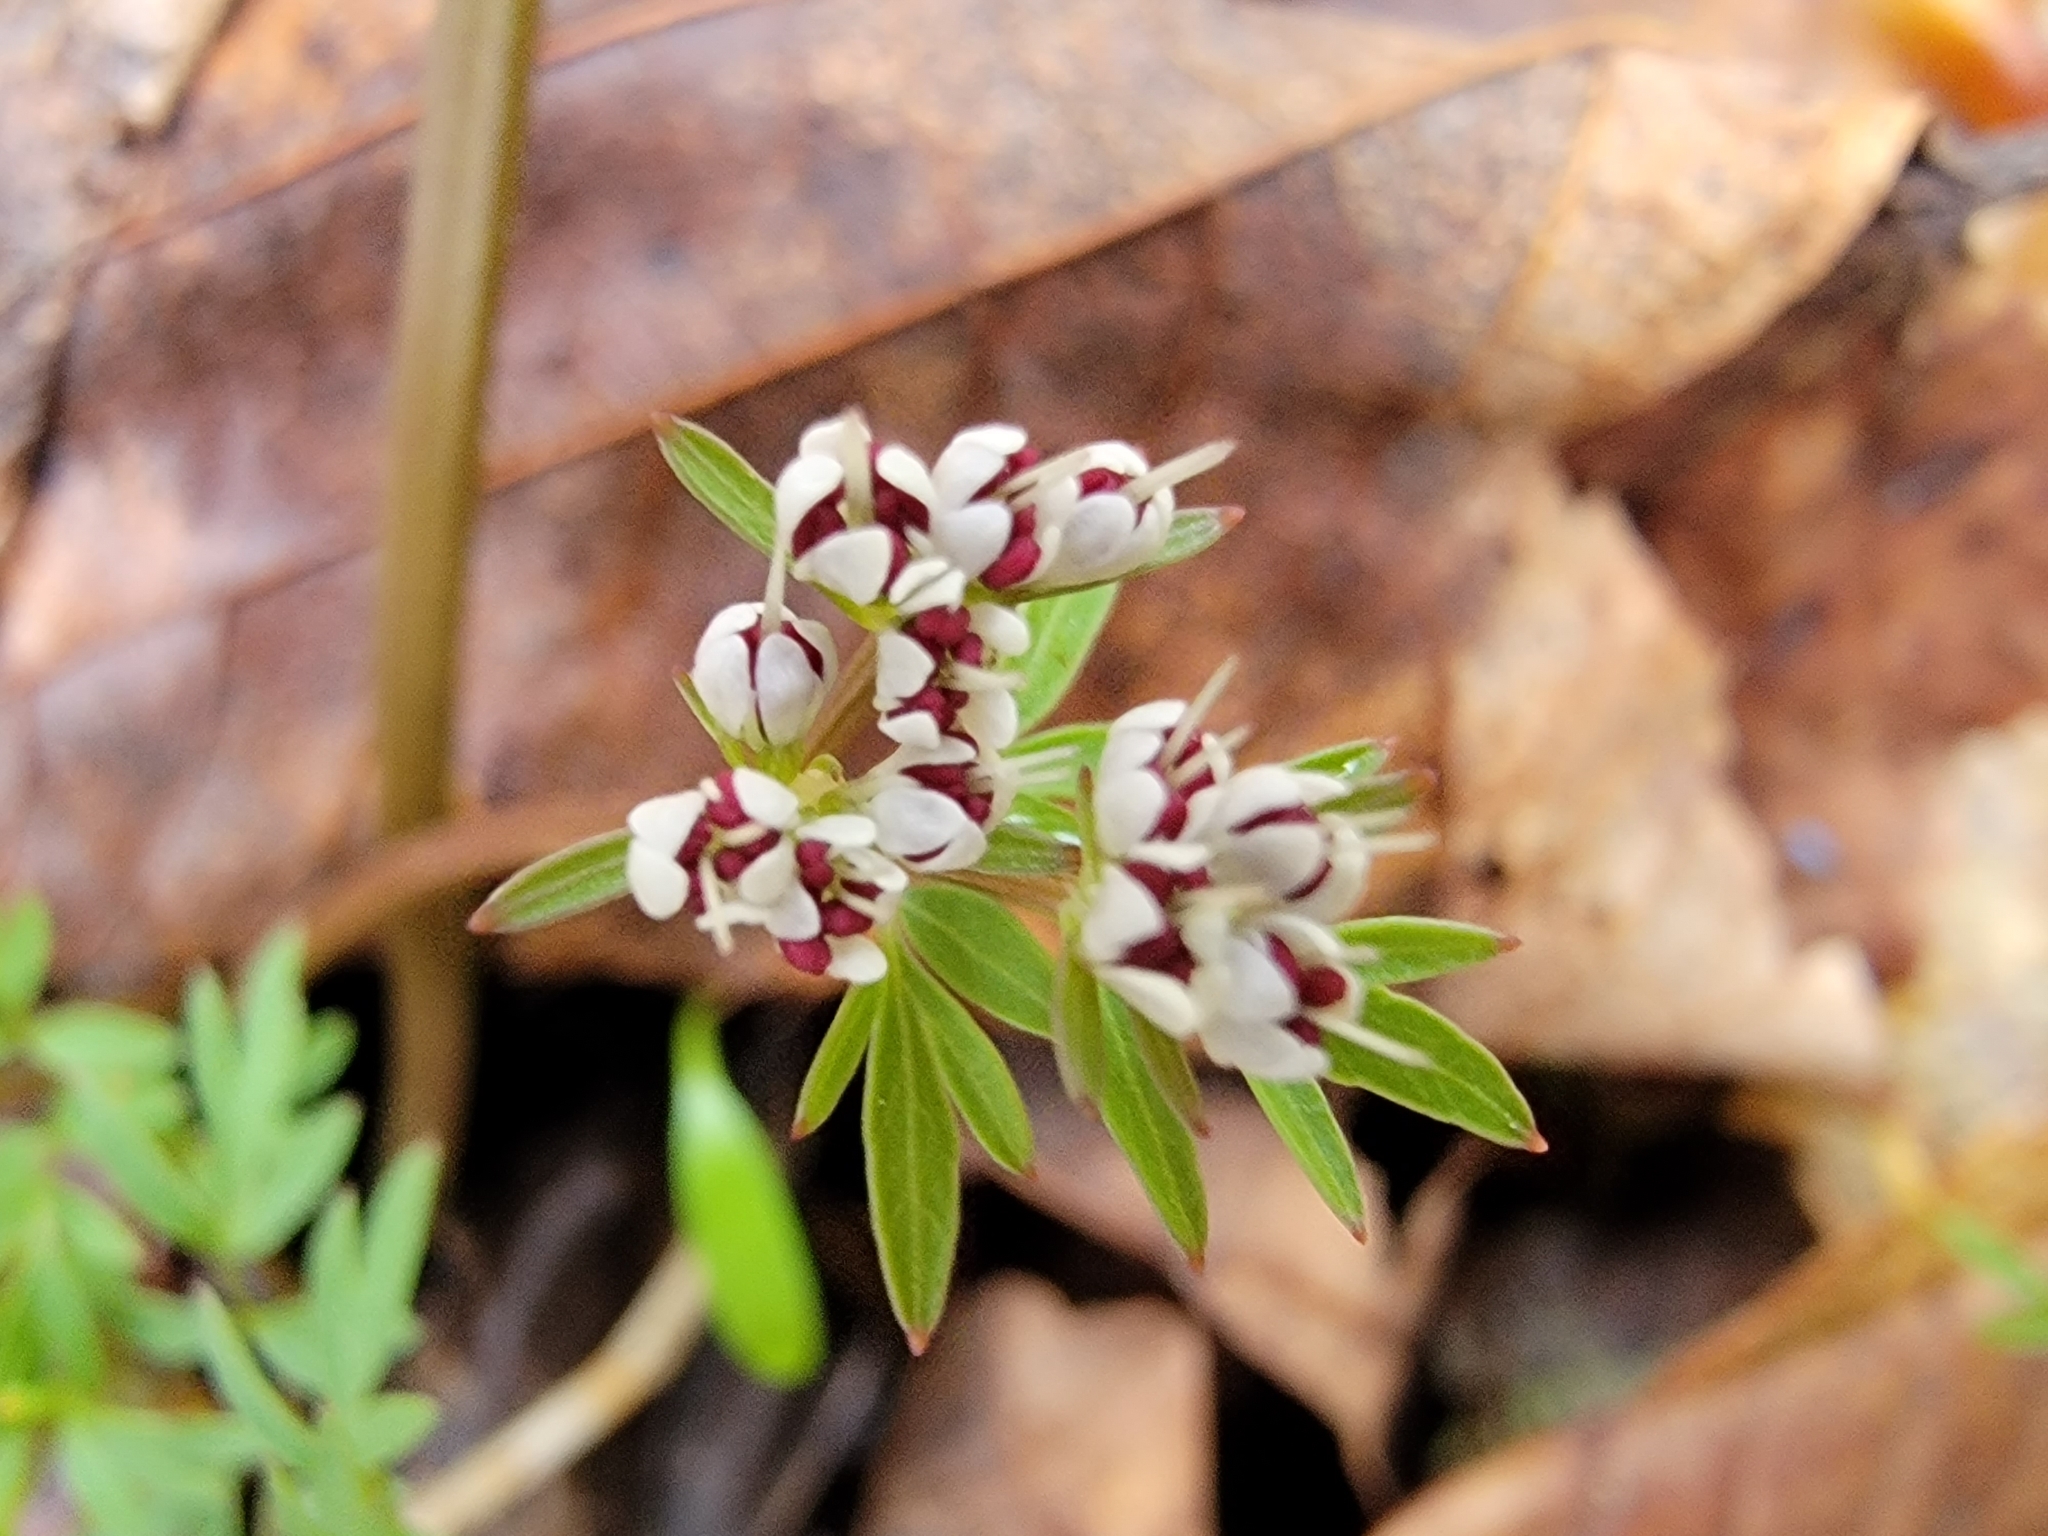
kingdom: Plantae
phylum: Tracheophyta
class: Magnoliopsida
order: Apiales
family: Apiaceae
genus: Erigenia
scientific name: Erigenia bulbosa
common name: Pepper-and-salt
